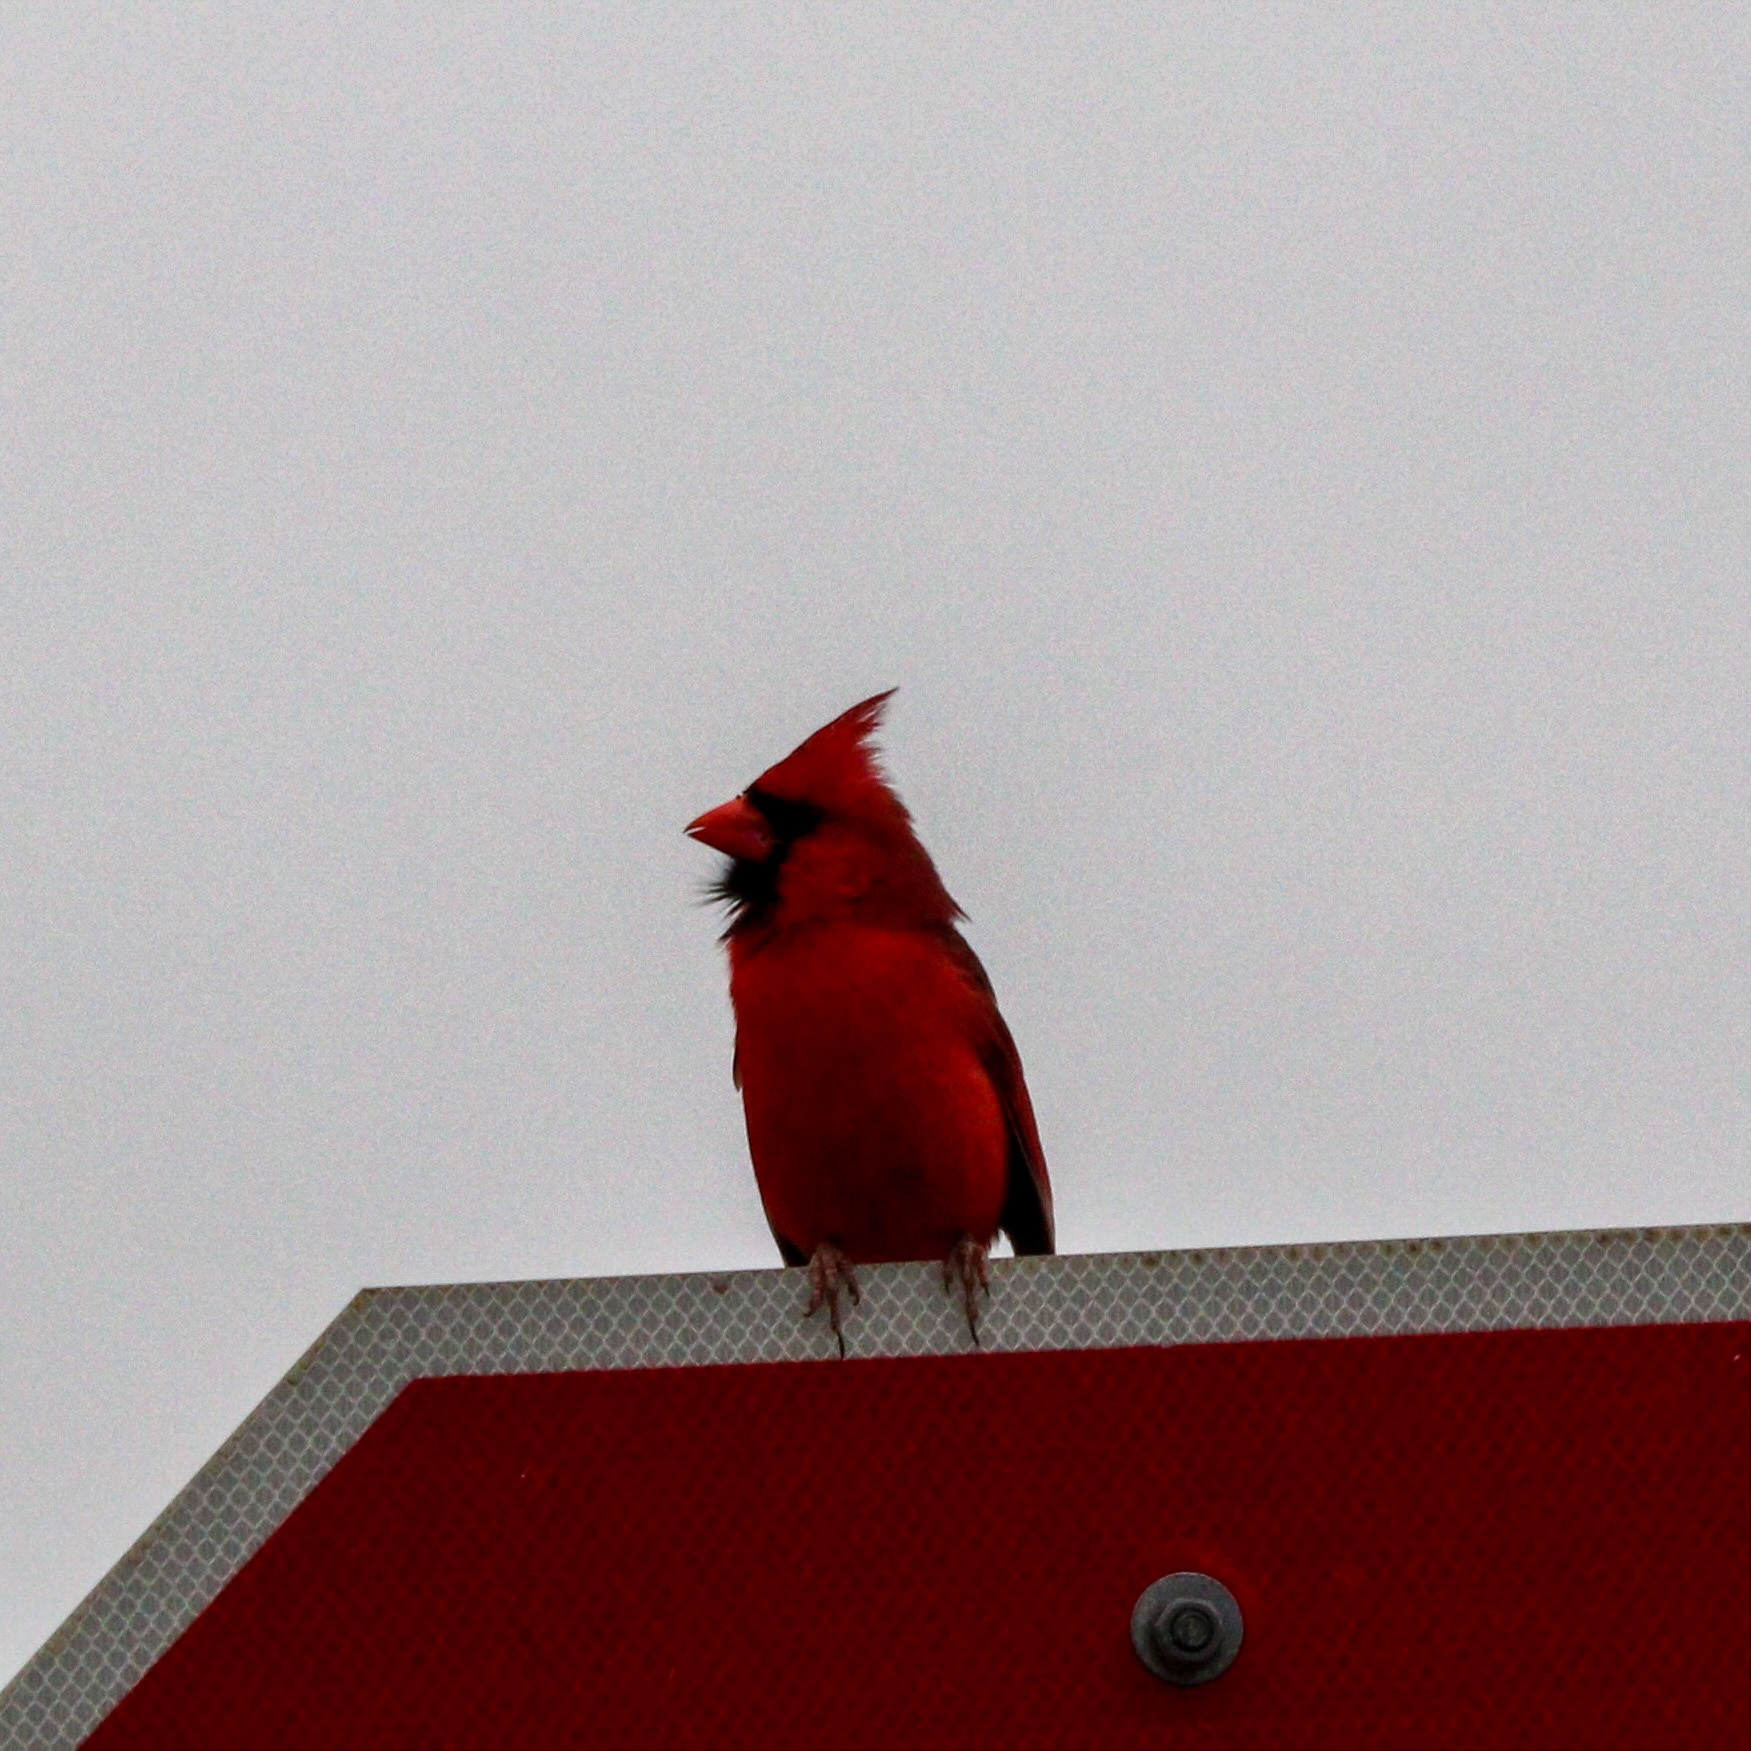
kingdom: Animalia
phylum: Chordata
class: Aves
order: Passeriformes
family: Cardinalidae
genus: Cardinalis
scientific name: Cardinalis cardinalis
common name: Northern cardinal
